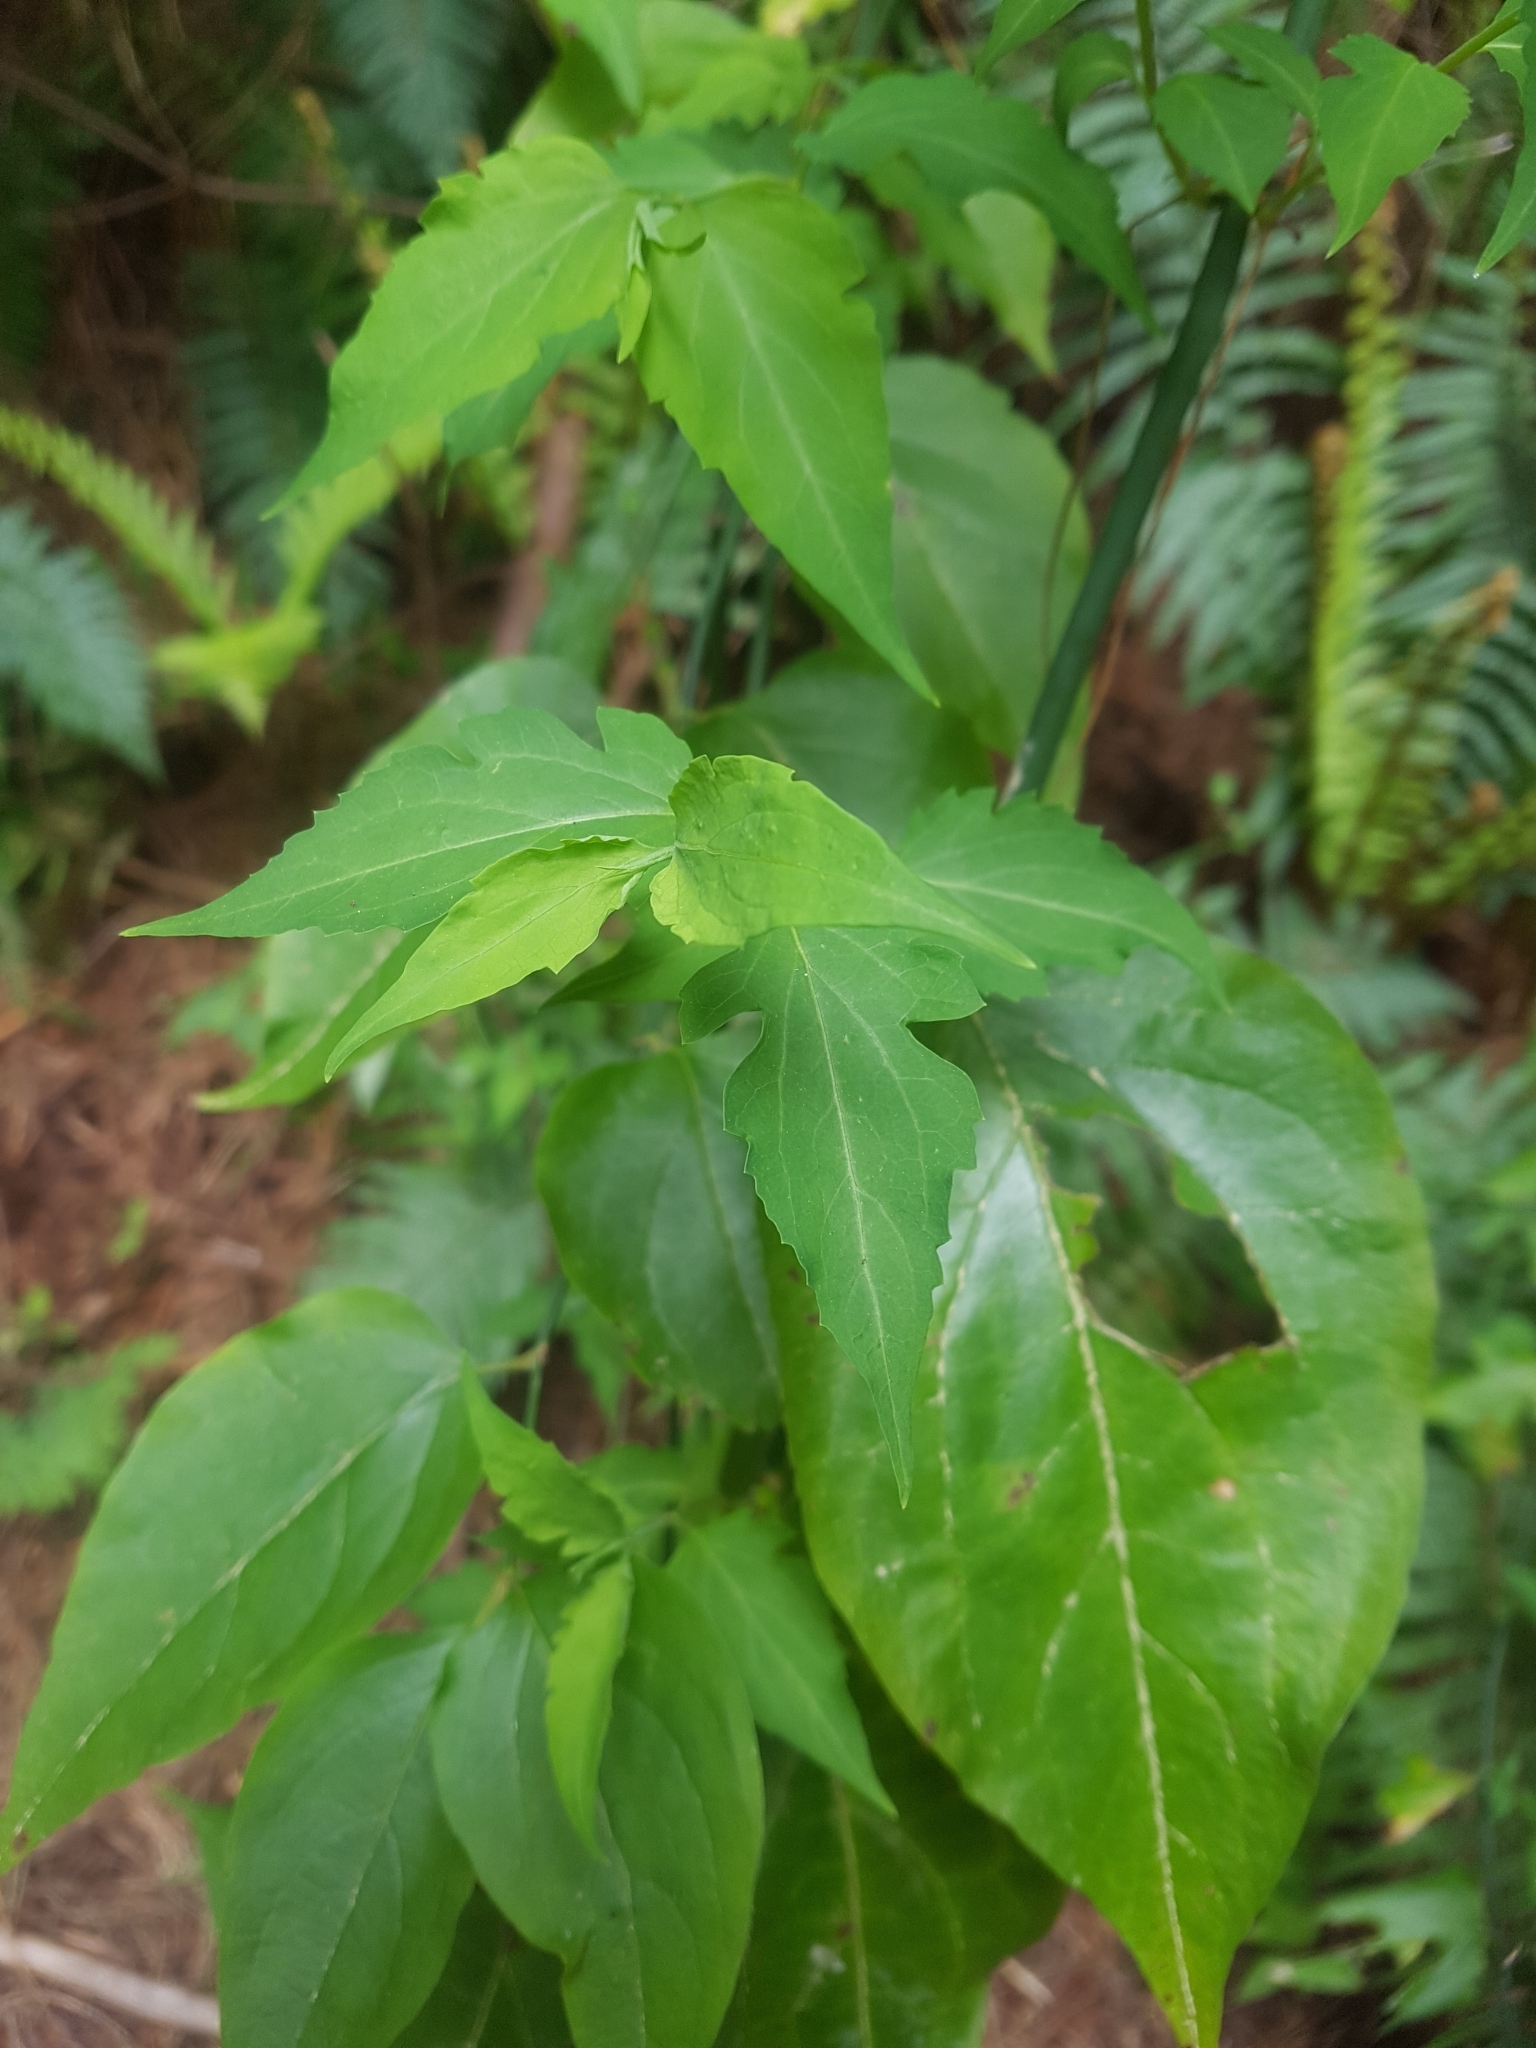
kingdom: Plantae
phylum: Tracheophyta
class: Magnoliopsida
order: Dipsacales
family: Caprifoliaceae
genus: Leycesteria
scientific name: Leycesteria formosa
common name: Himalayan honeysuckle
